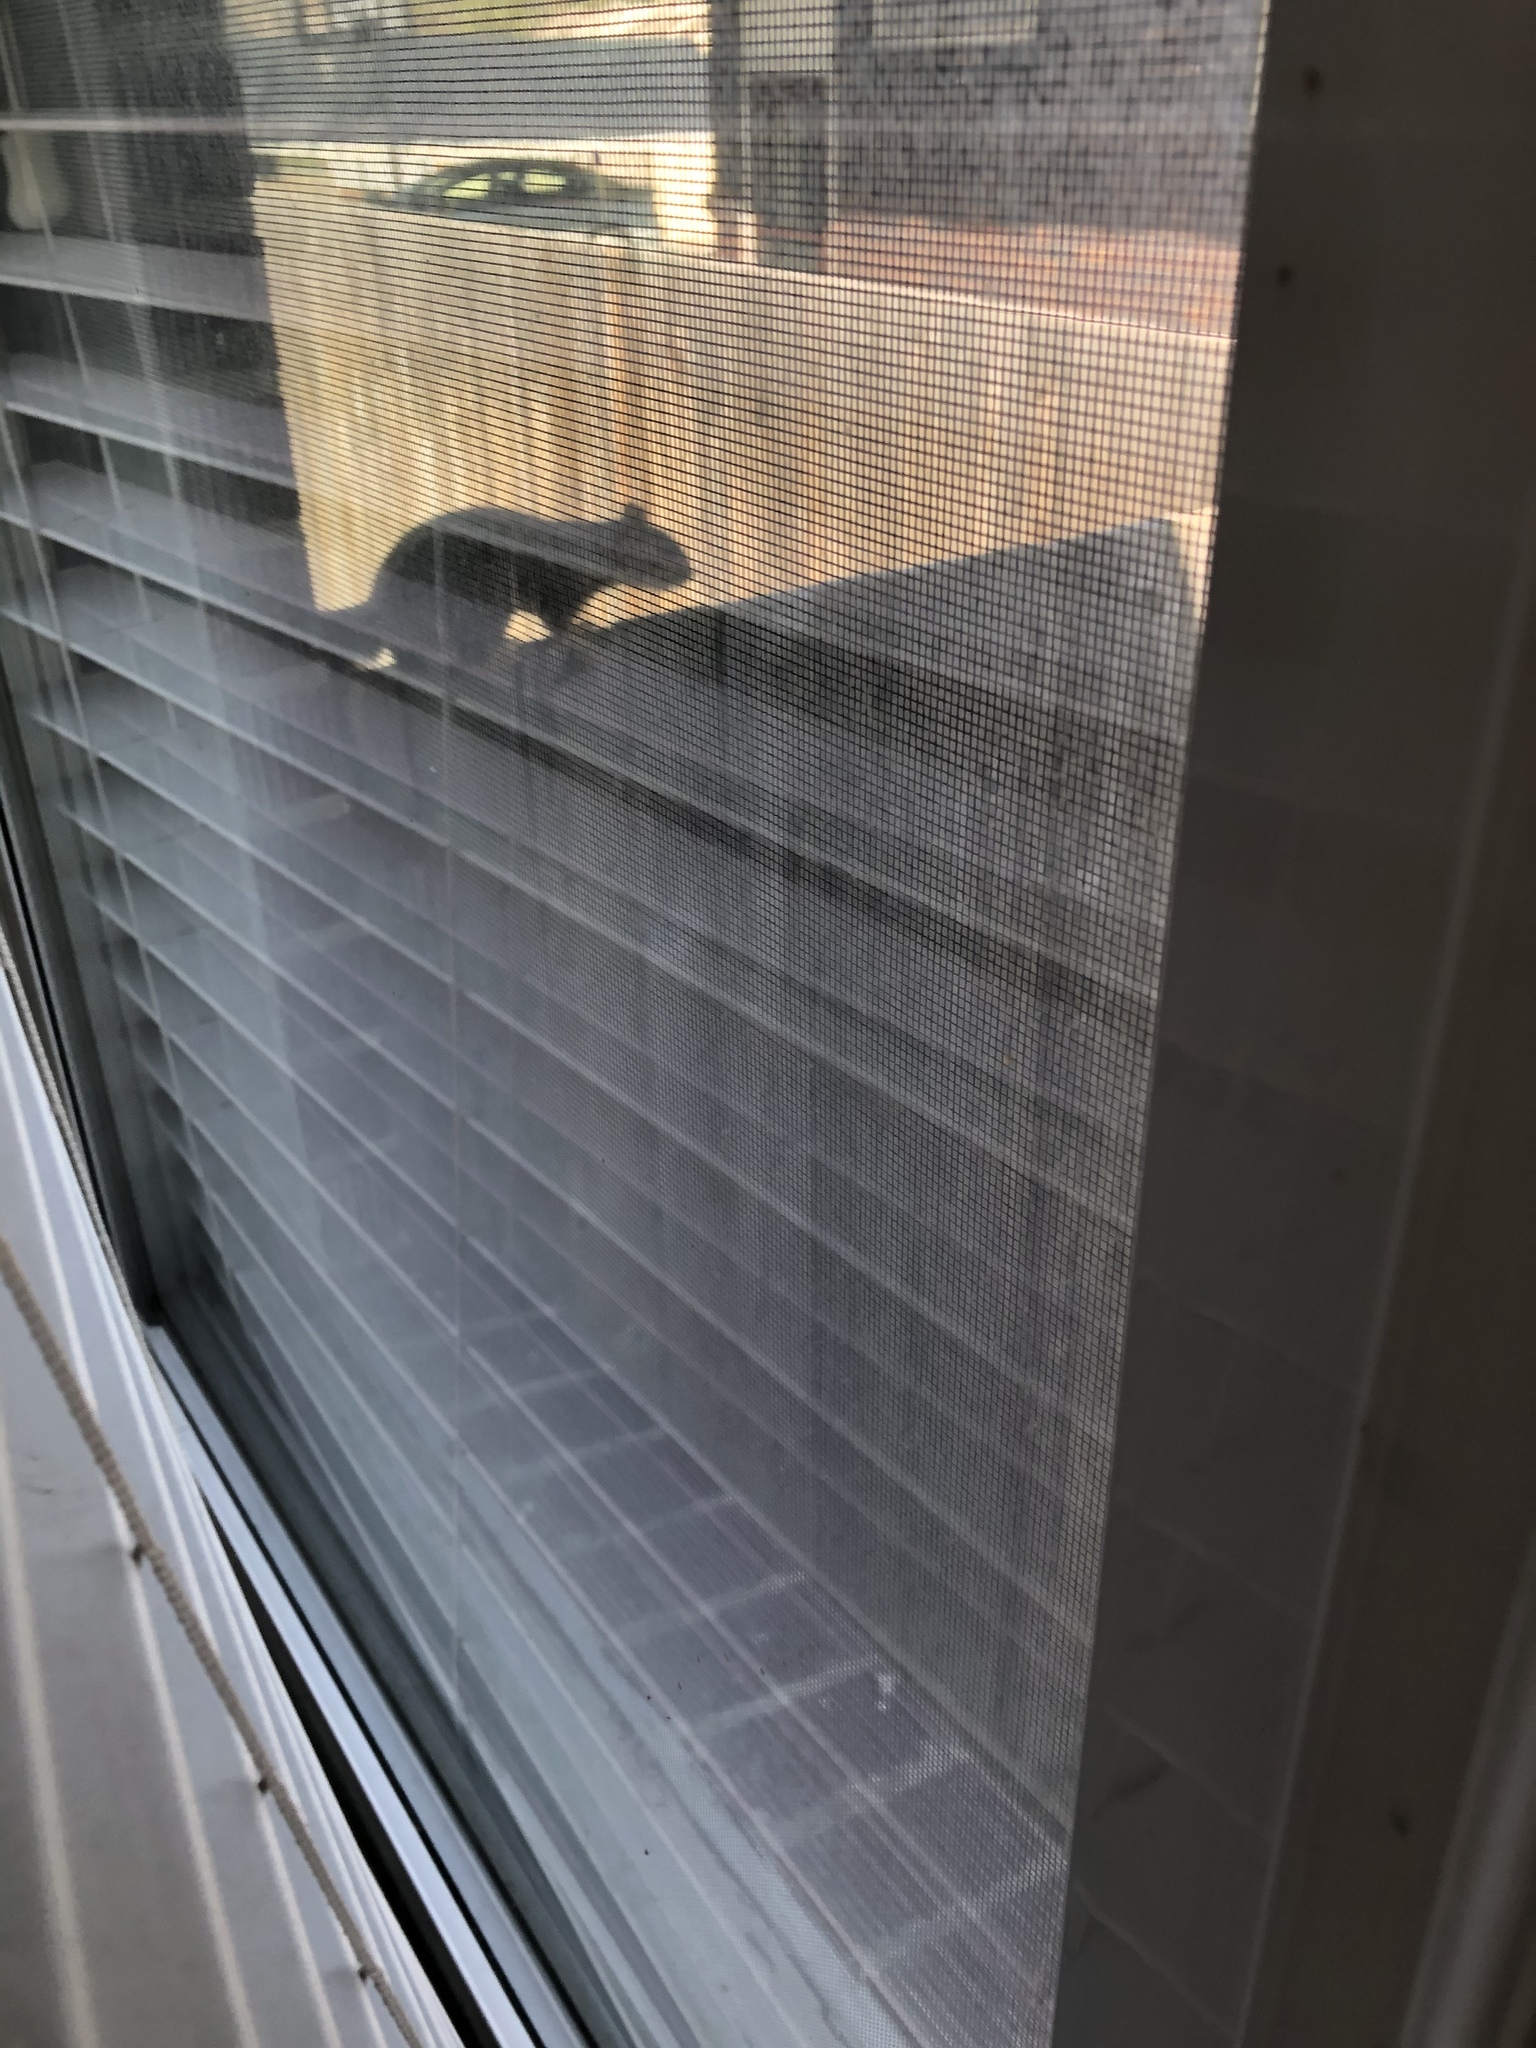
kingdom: Animalia
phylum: Chordata
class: Mammalia
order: Rodentia
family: Sciuridae
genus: Sciurus
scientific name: Sciurus niger
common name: Fox squirrel
